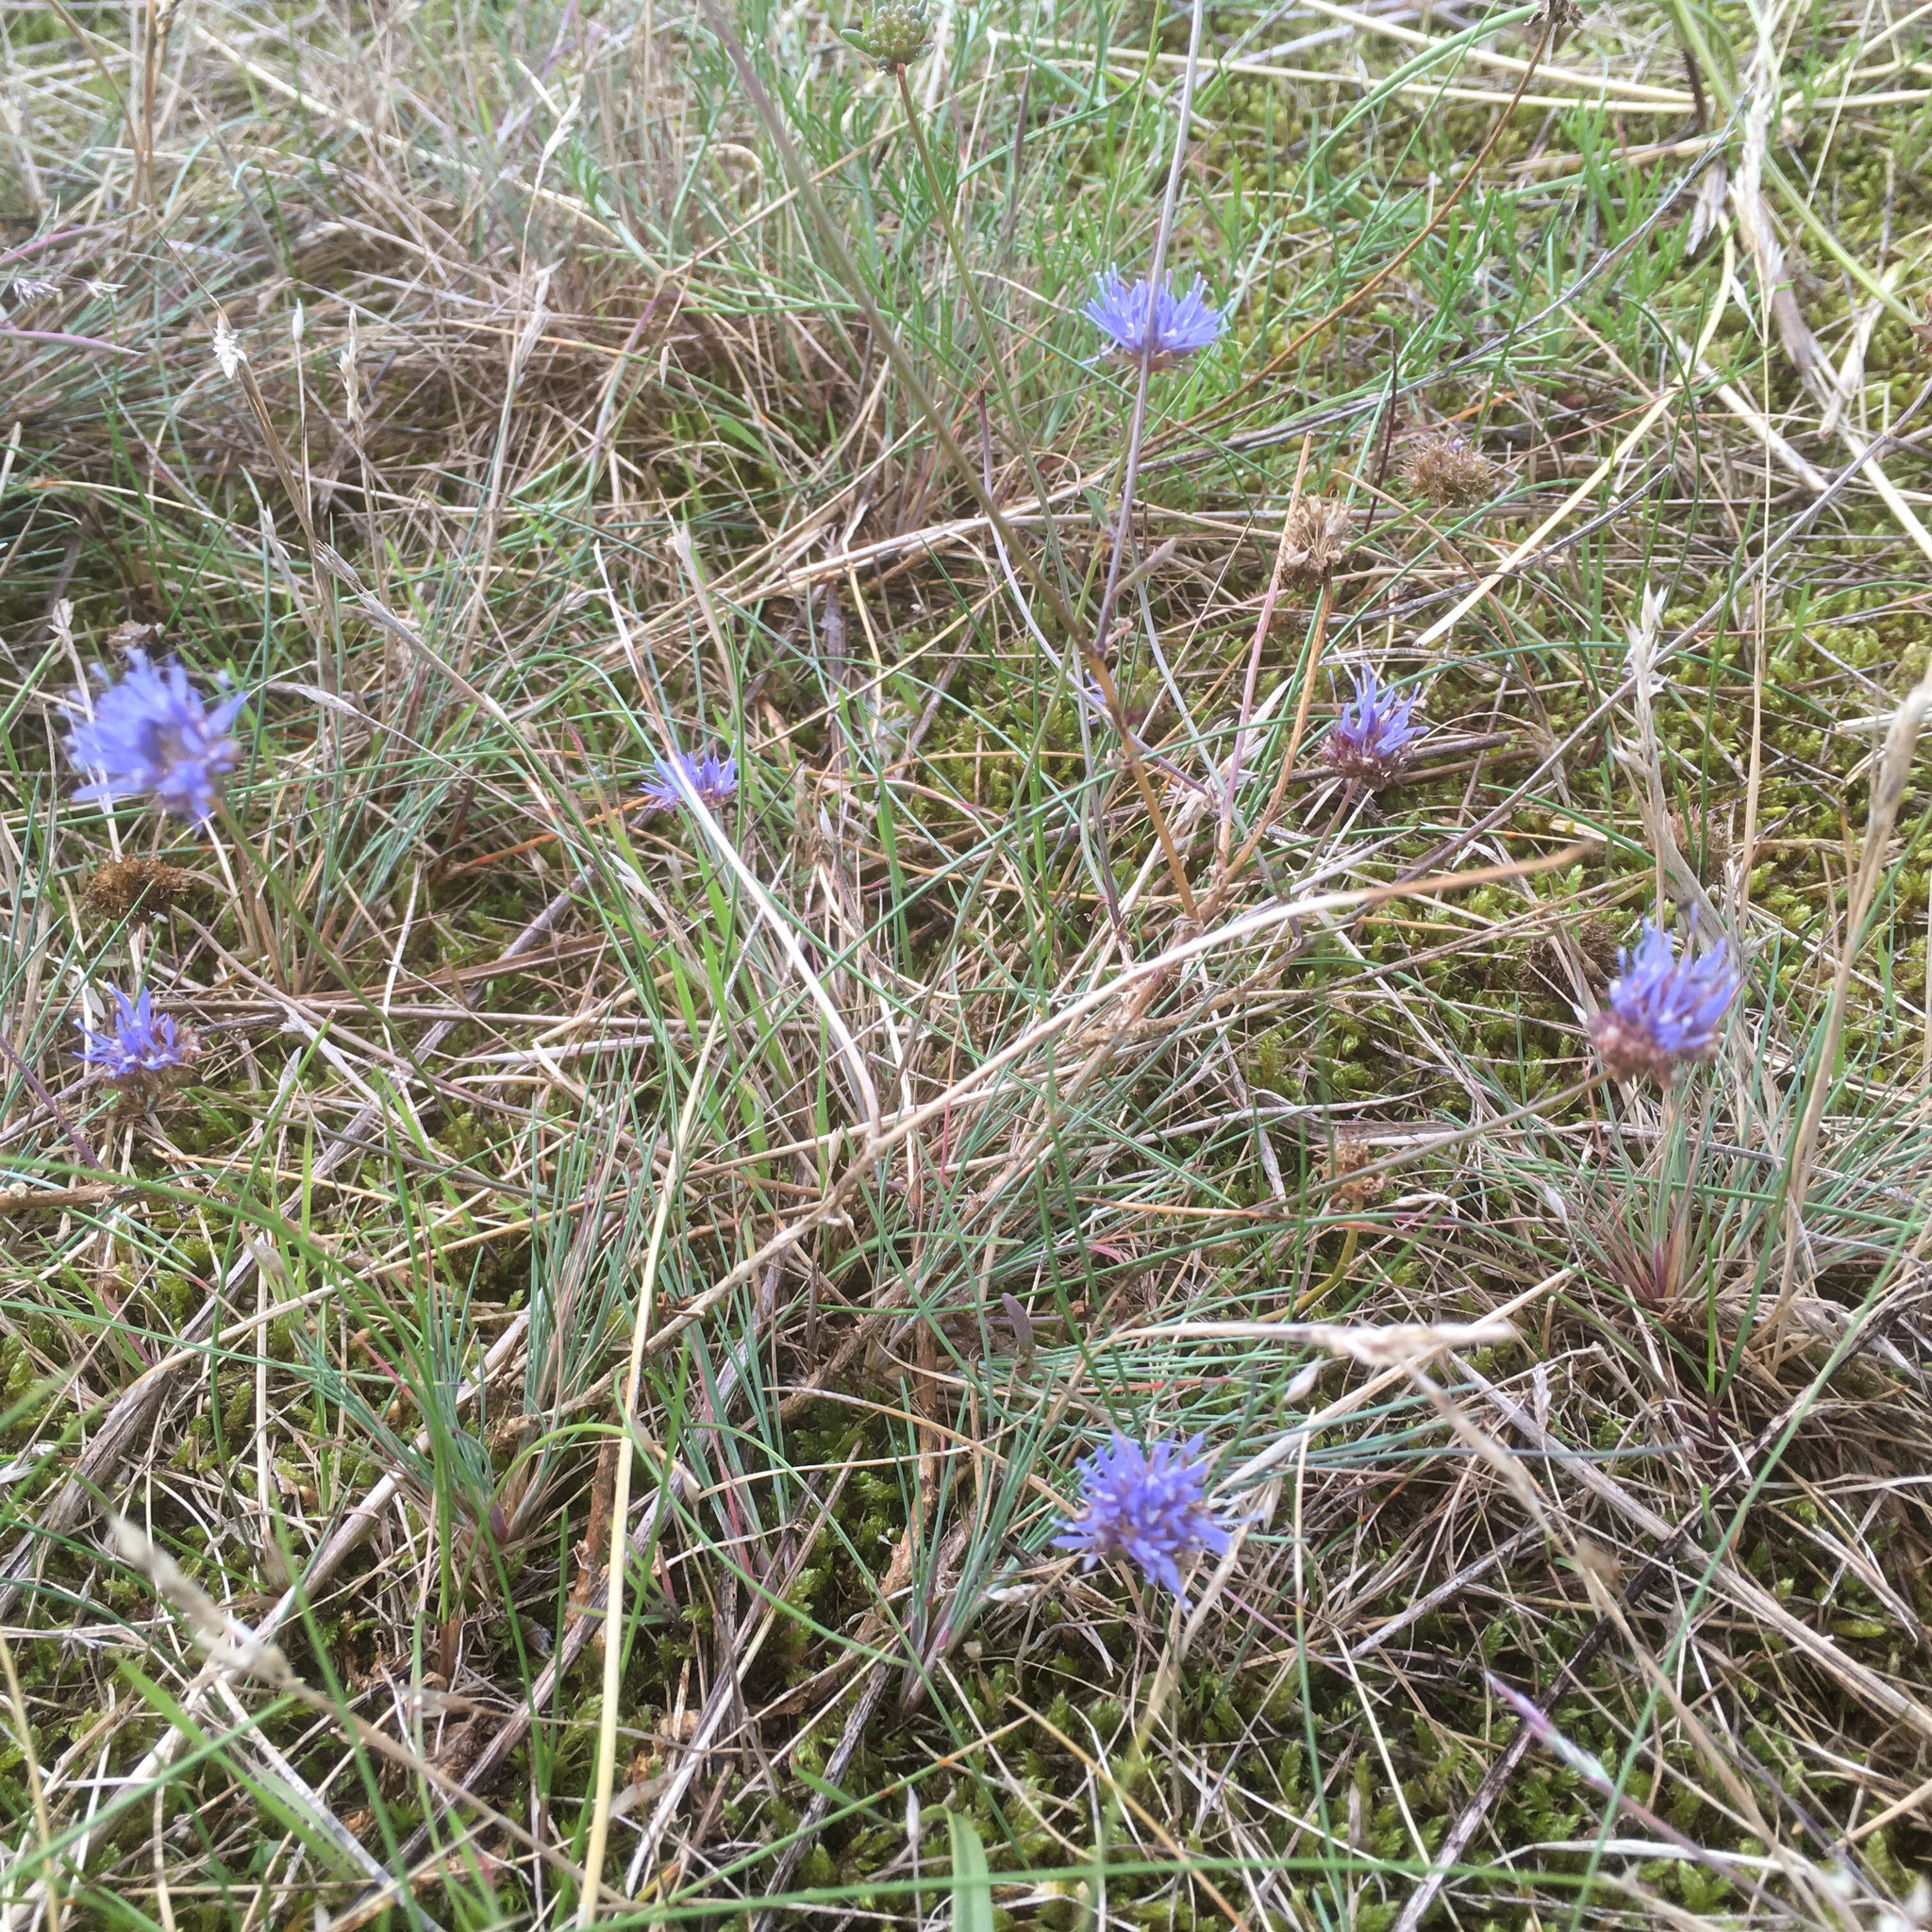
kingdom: Plantae
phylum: Tracheophyta
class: Magnoliopsida
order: Asterales
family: Campanulaceae
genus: Jasione
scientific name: Jasione montana
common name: Sheep's-bit
